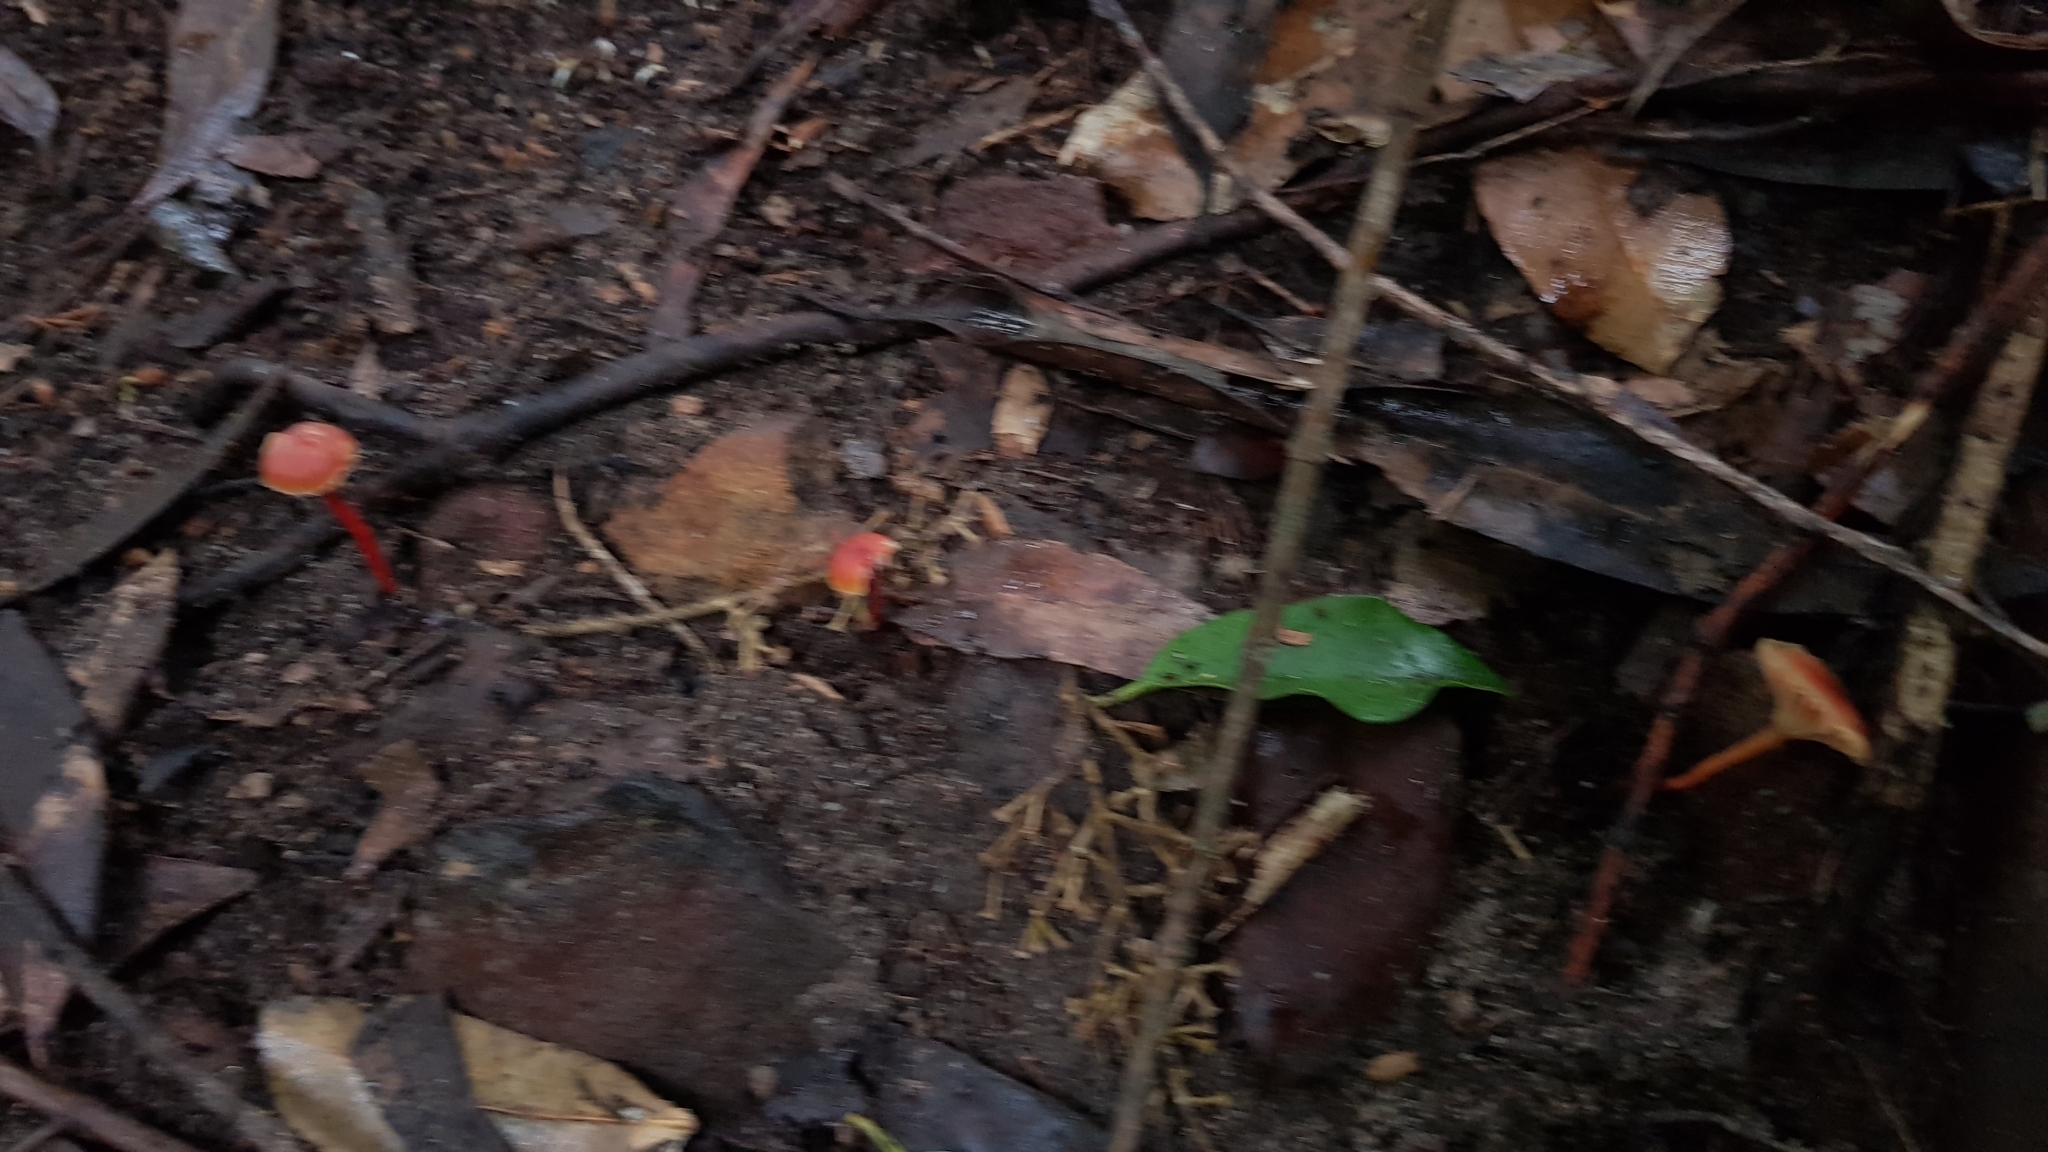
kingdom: Fungi
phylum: Basidiomycota
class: Agaricomycetes
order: Agaricales
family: Hygrophoraceae
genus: Hygrocybe
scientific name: Hygrocybe anomala
